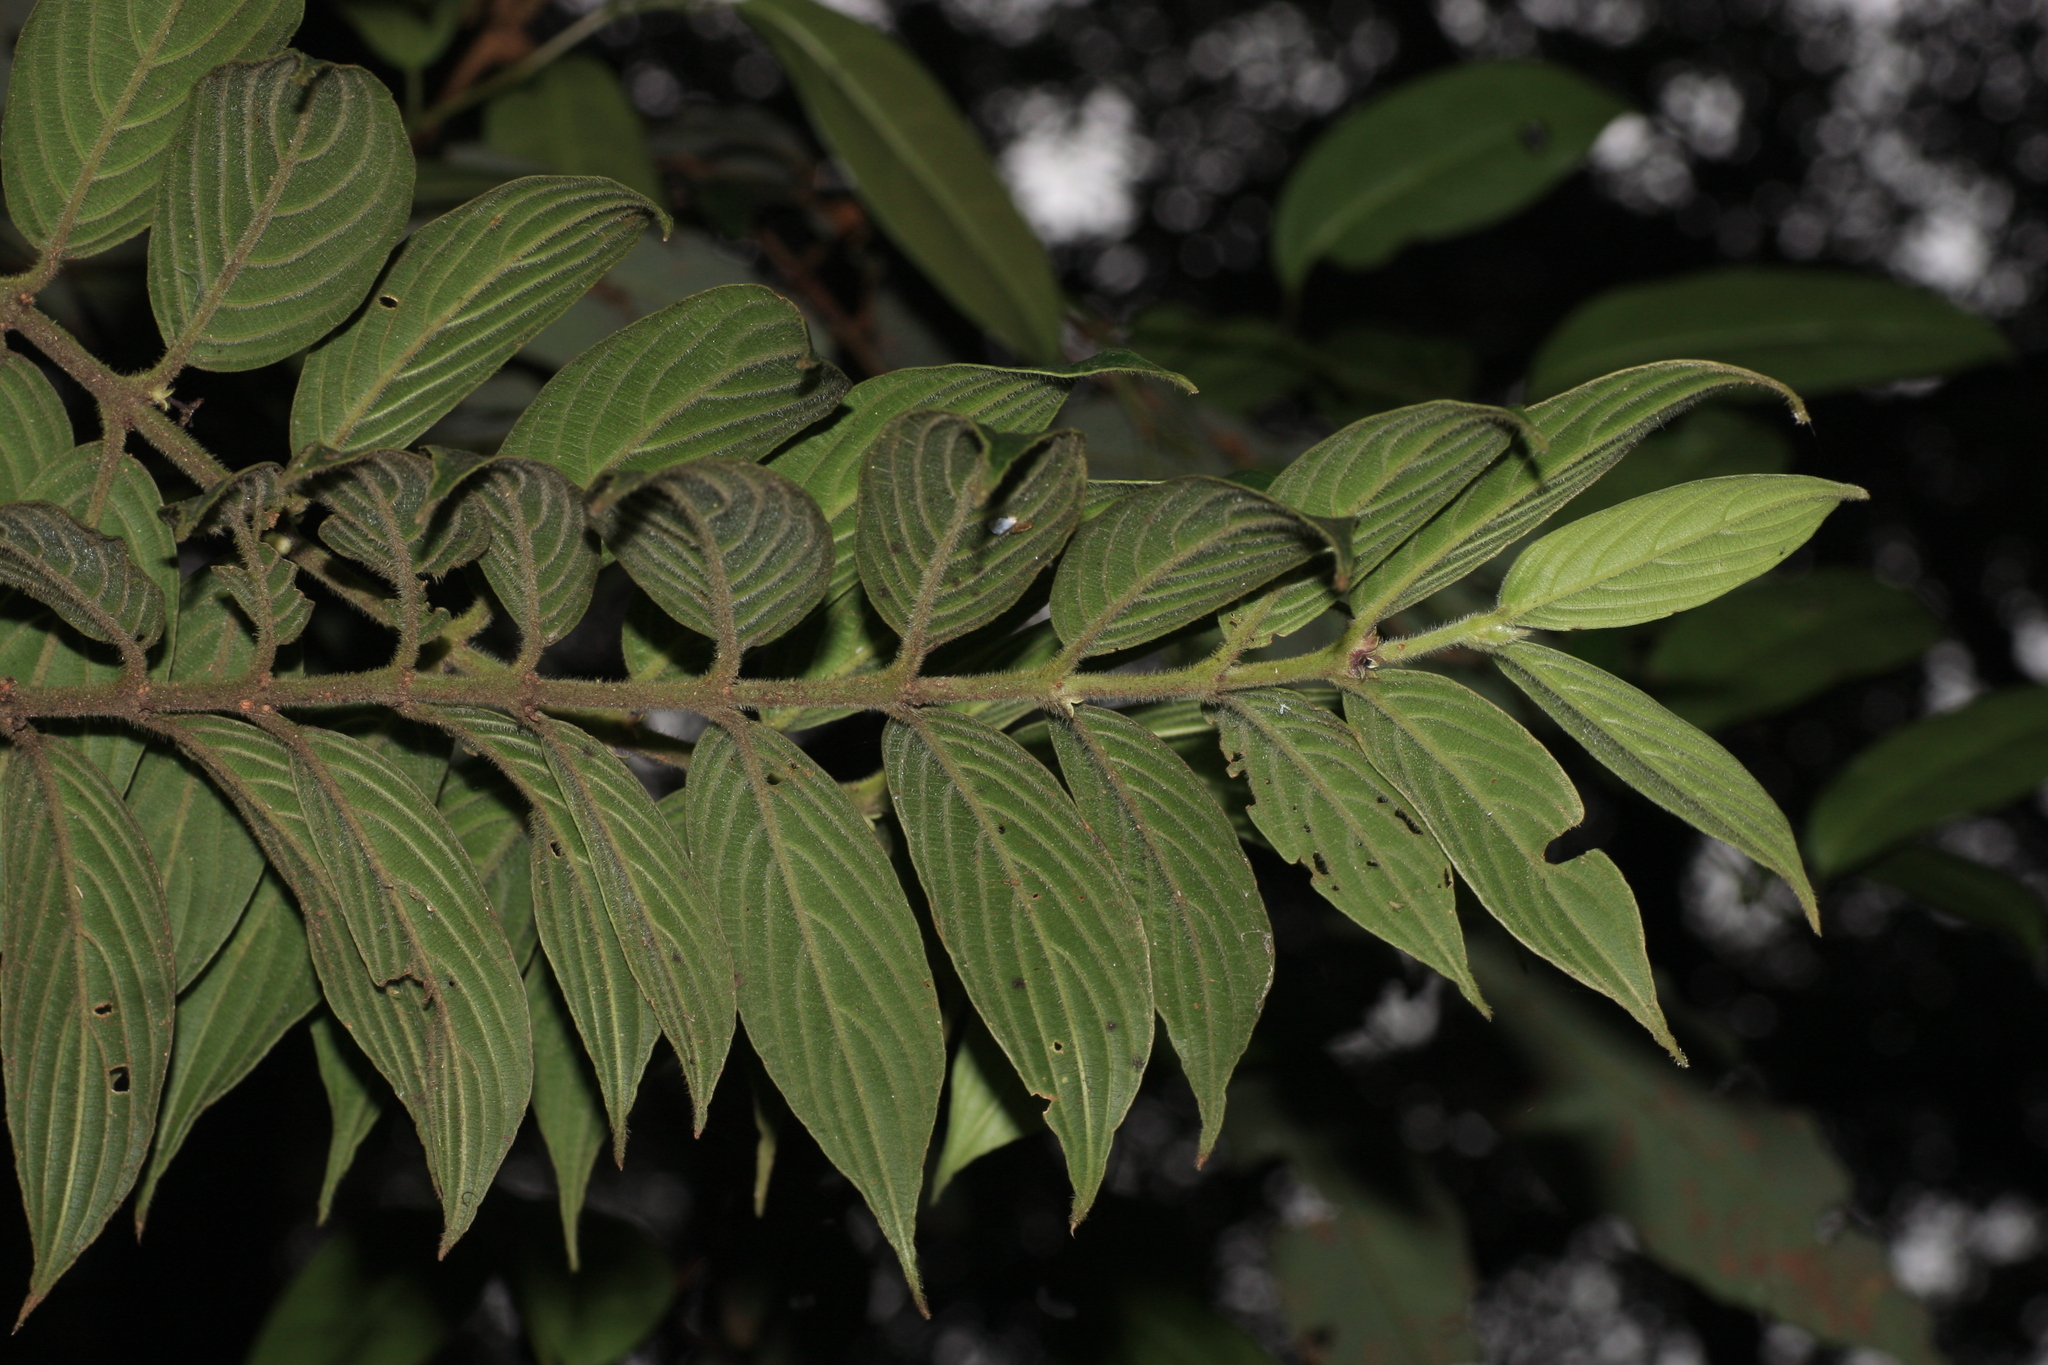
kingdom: Plantae
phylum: Tracheophyta
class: Magnoliopsida
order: Gentianales
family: Rubiaceae
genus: Lasianthus
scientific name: Lasianthus jackianus
